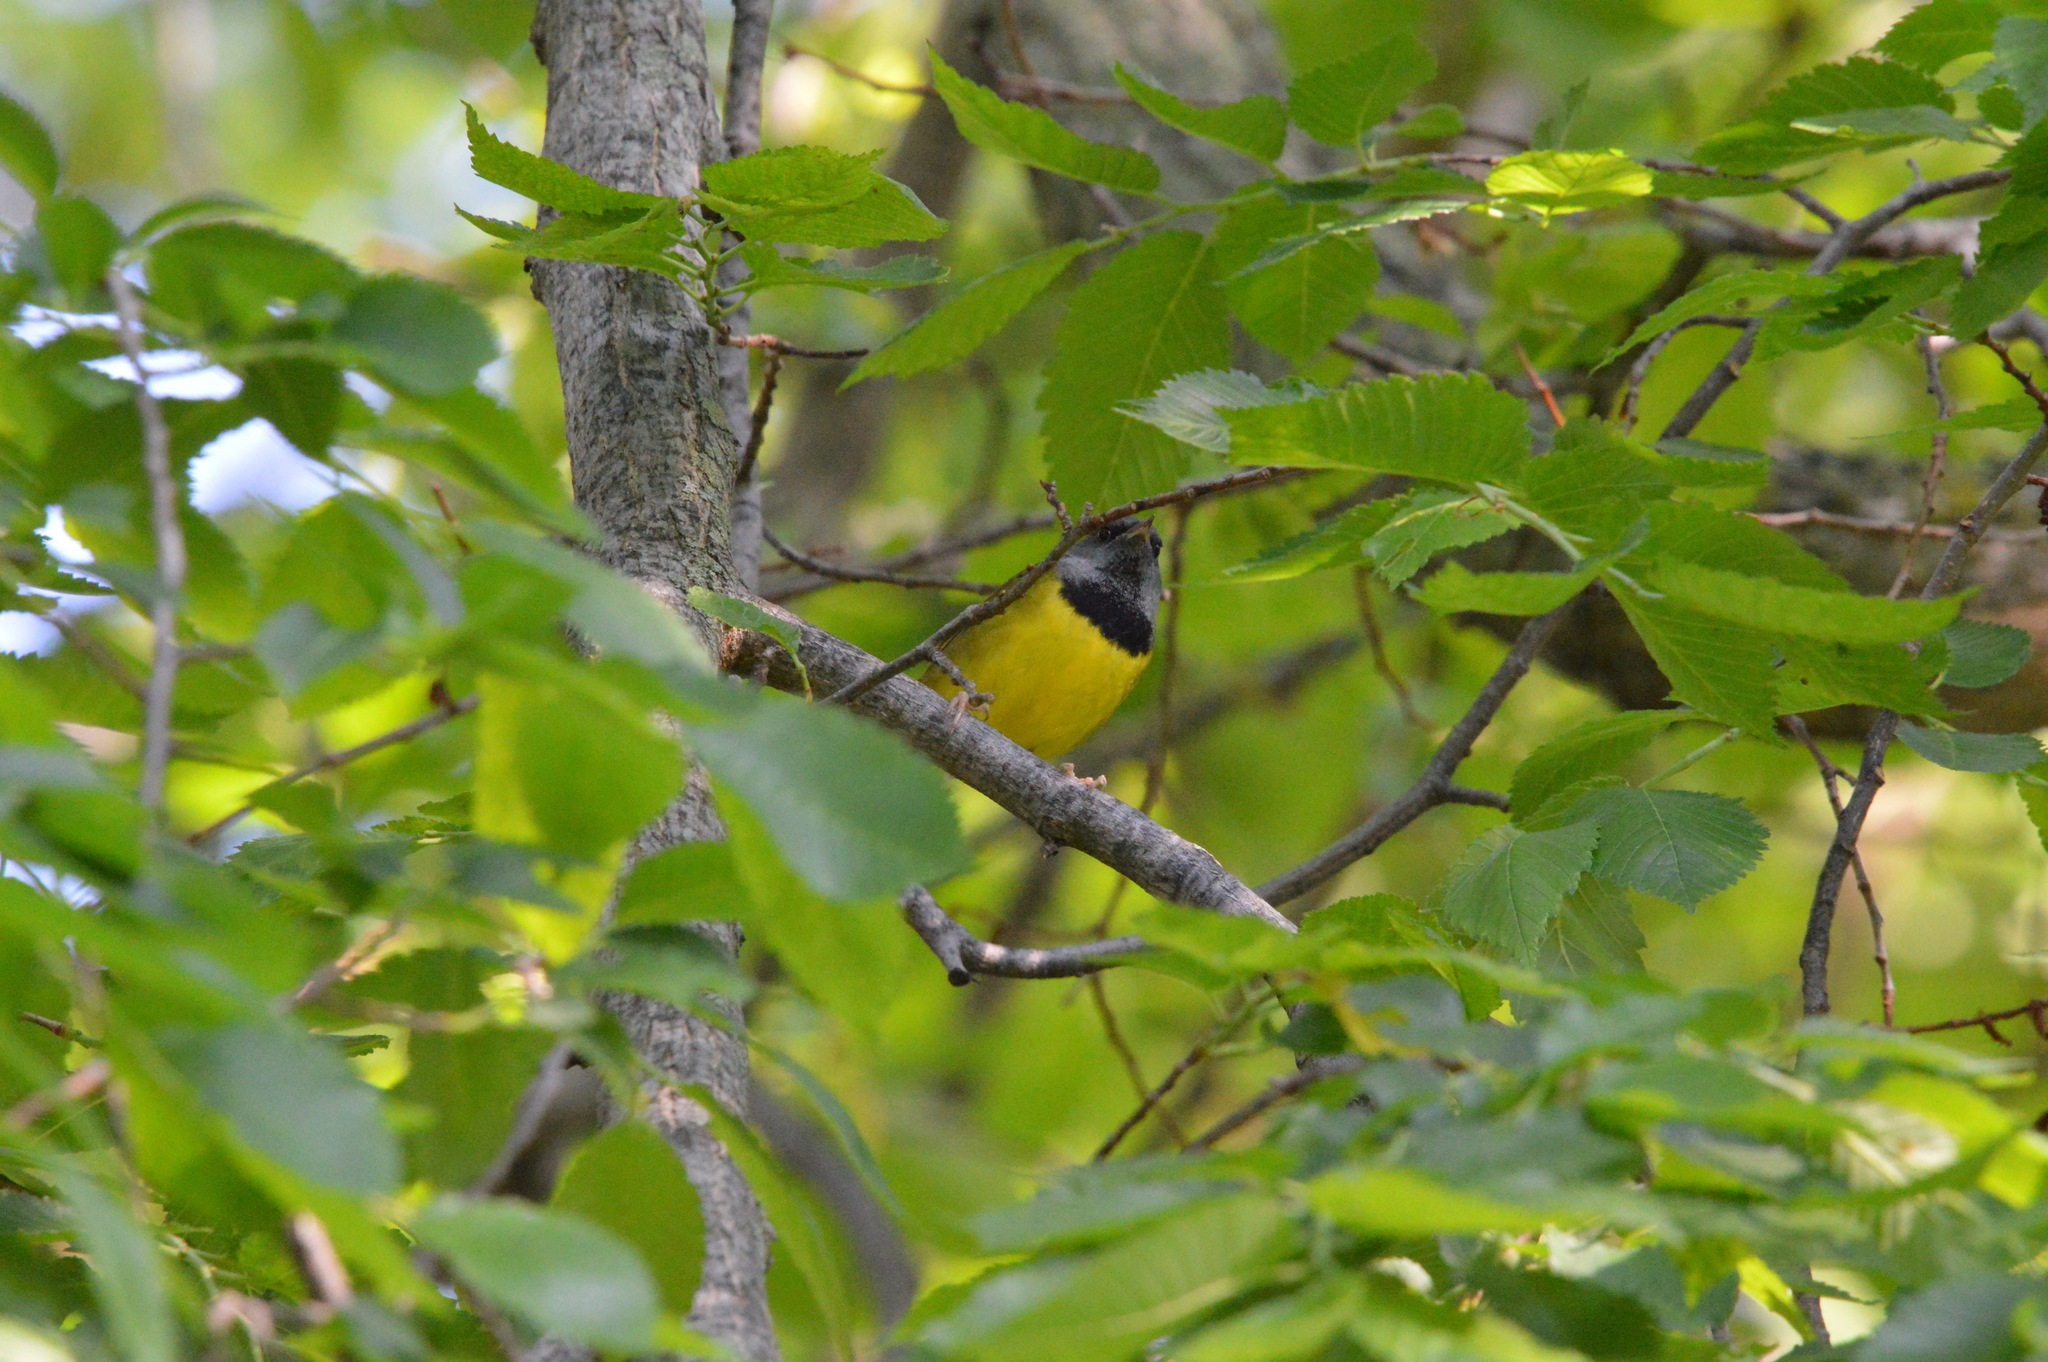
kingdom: Animalia
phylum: Chordata
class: Aves
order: Passeriformes
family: Parulidae
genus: Geothlypis
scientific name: Geothlypis philadelphia
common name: Mourning warbler
